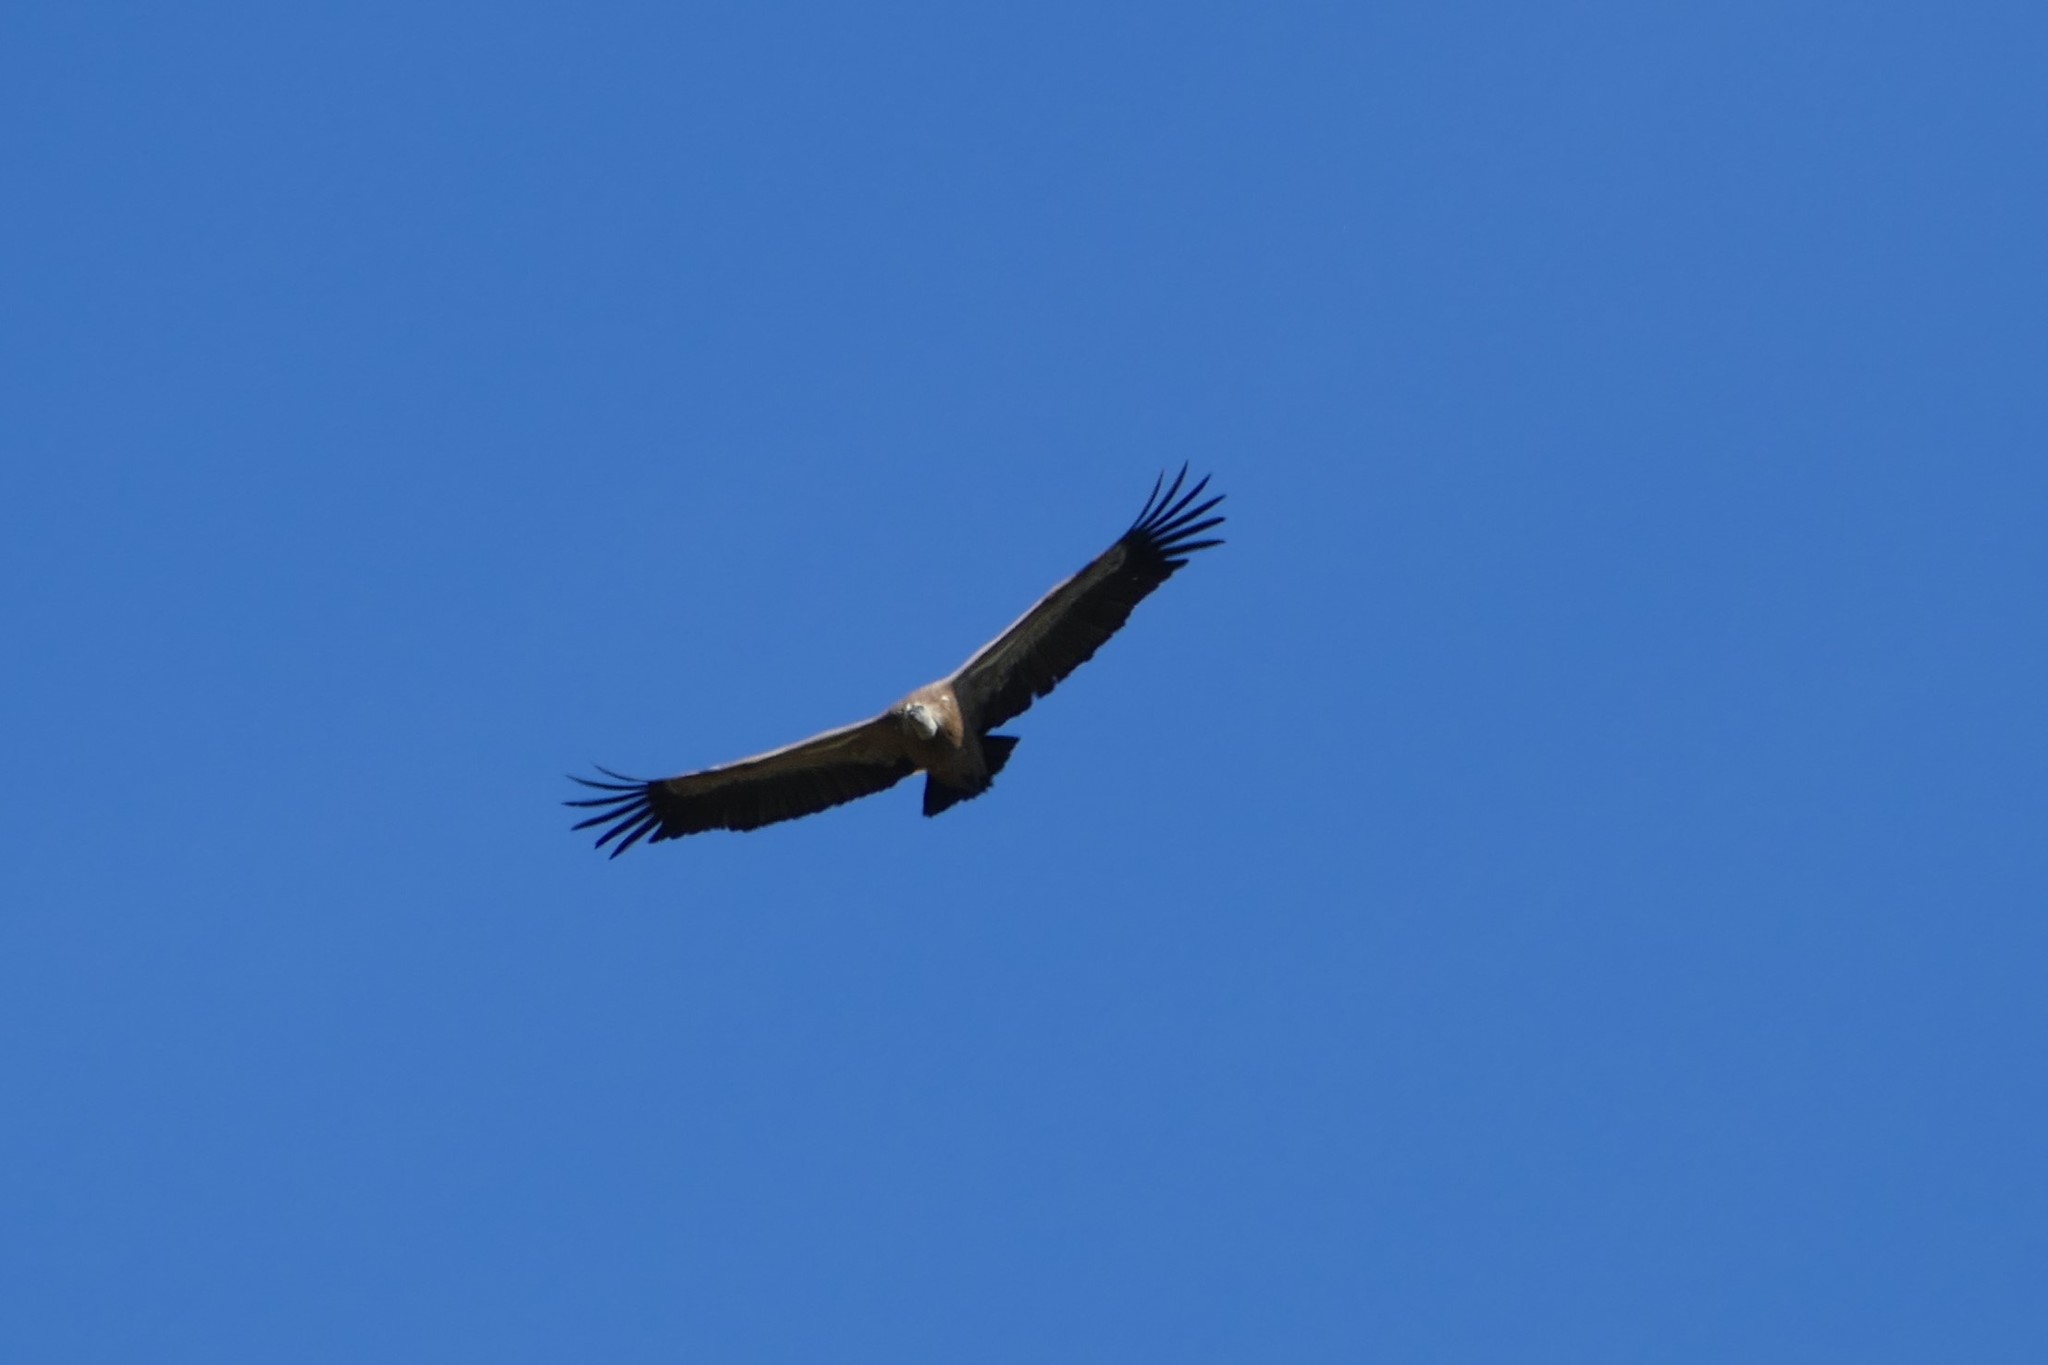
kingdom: Animalia
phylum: Chordata
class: Aves
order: Accipitriformes
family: Accipitridae
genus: Gyps
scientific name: Gyps fulvus
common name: Griffon vulture
